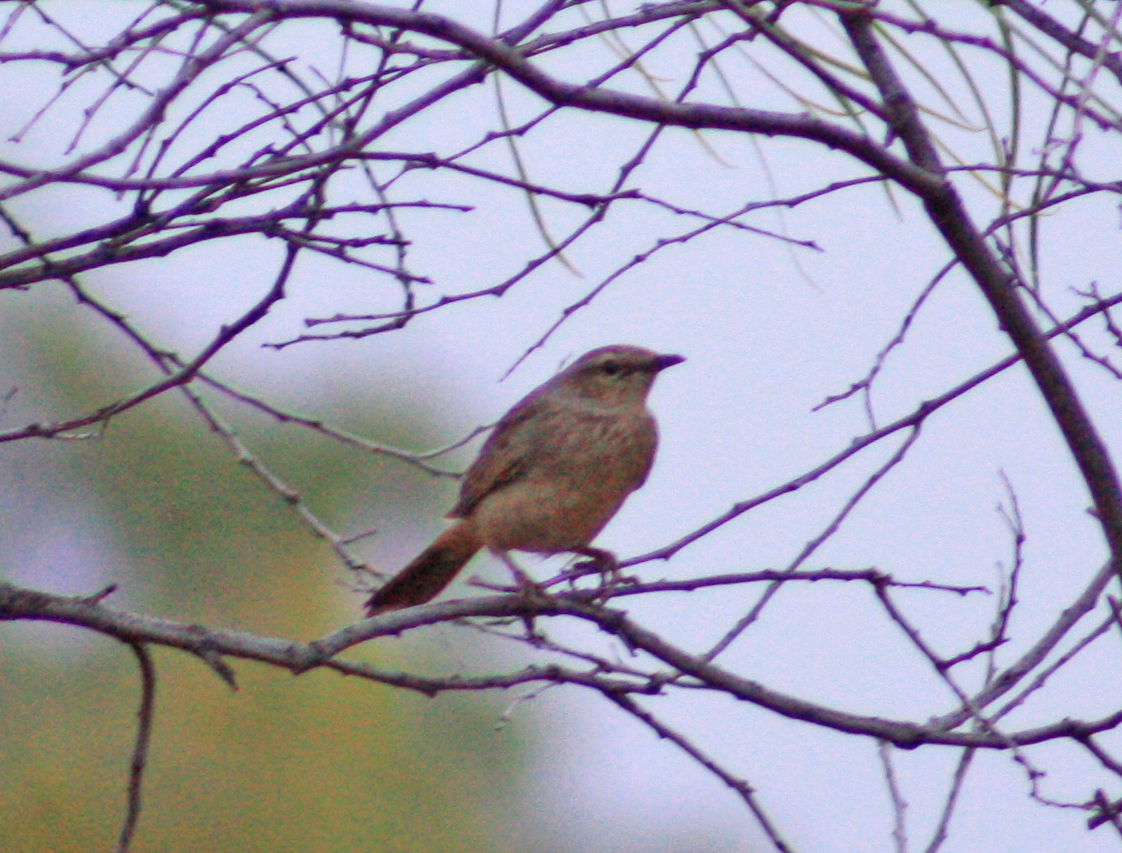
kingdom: Animalia
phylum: Chordata
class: Aves
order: Passeriformes
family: Locustellidae
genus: Megalurus
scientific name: Megalurus mathewsi
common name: Rufous songlark
